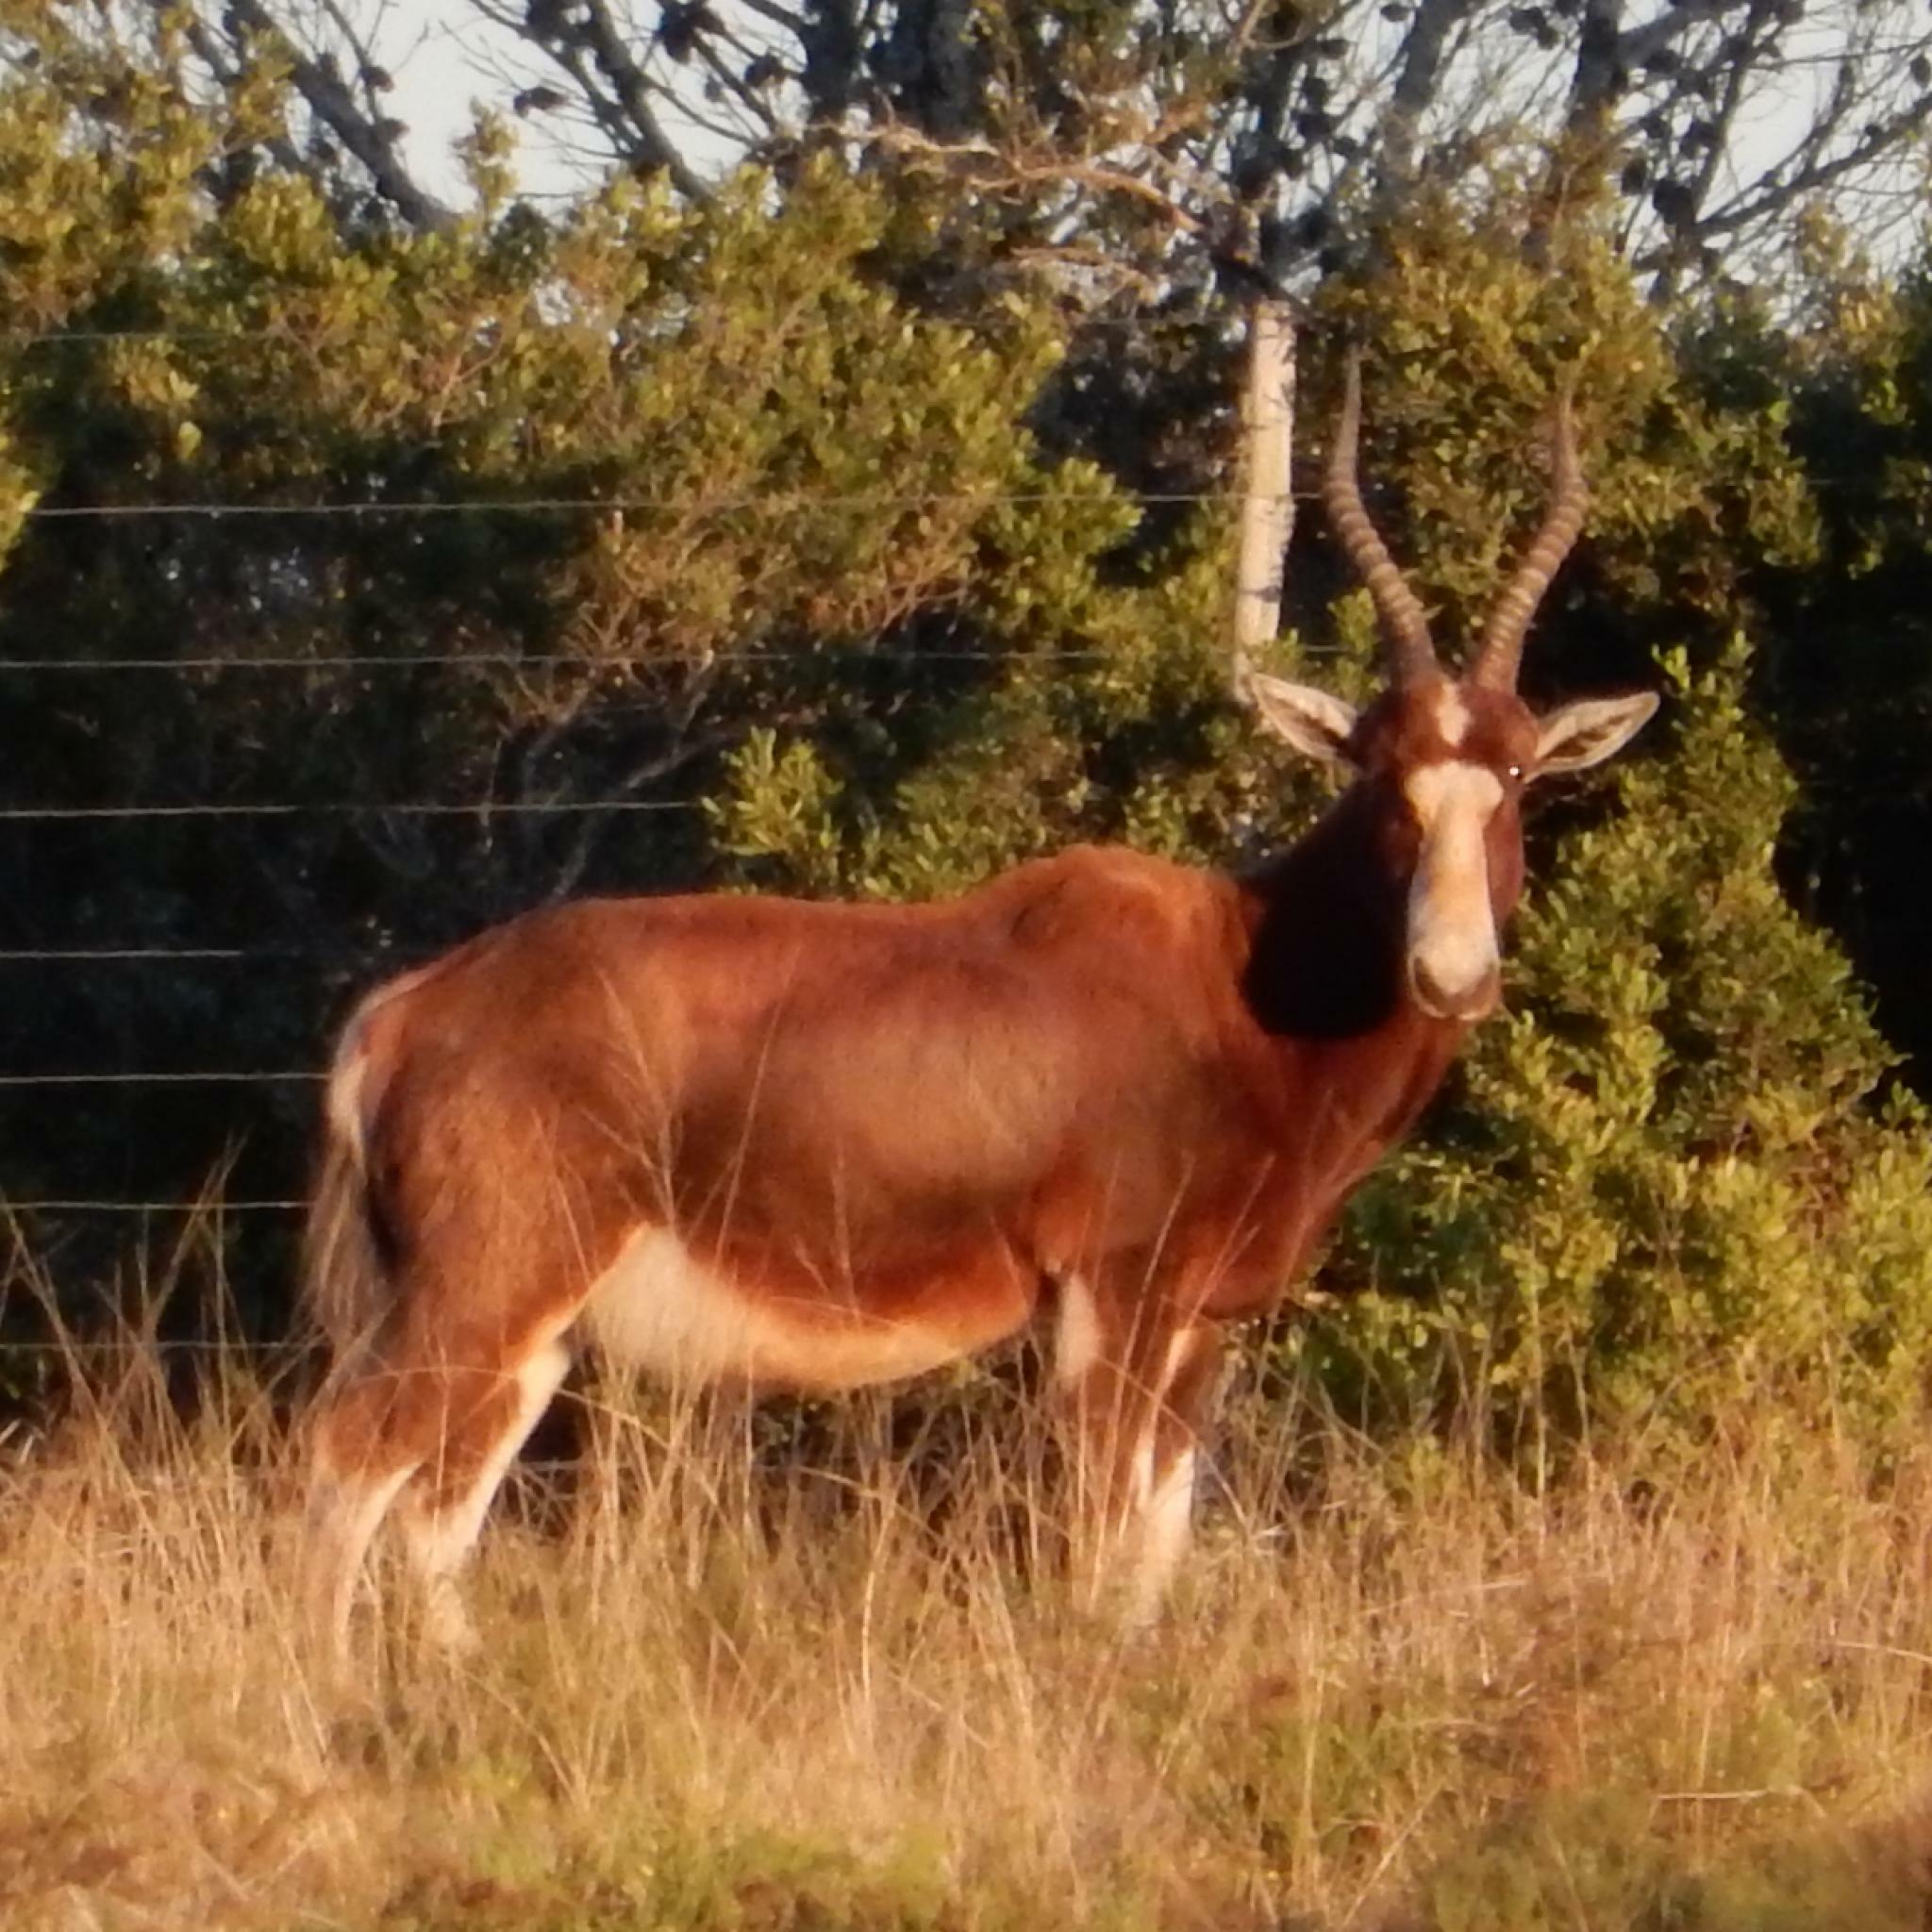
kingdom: Animalia
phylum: Chordata
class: Mammalia
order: Artiodactyla
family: Bovidae
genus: Damaliscus
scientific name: Damaliscus pygargus
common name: Bontebok
